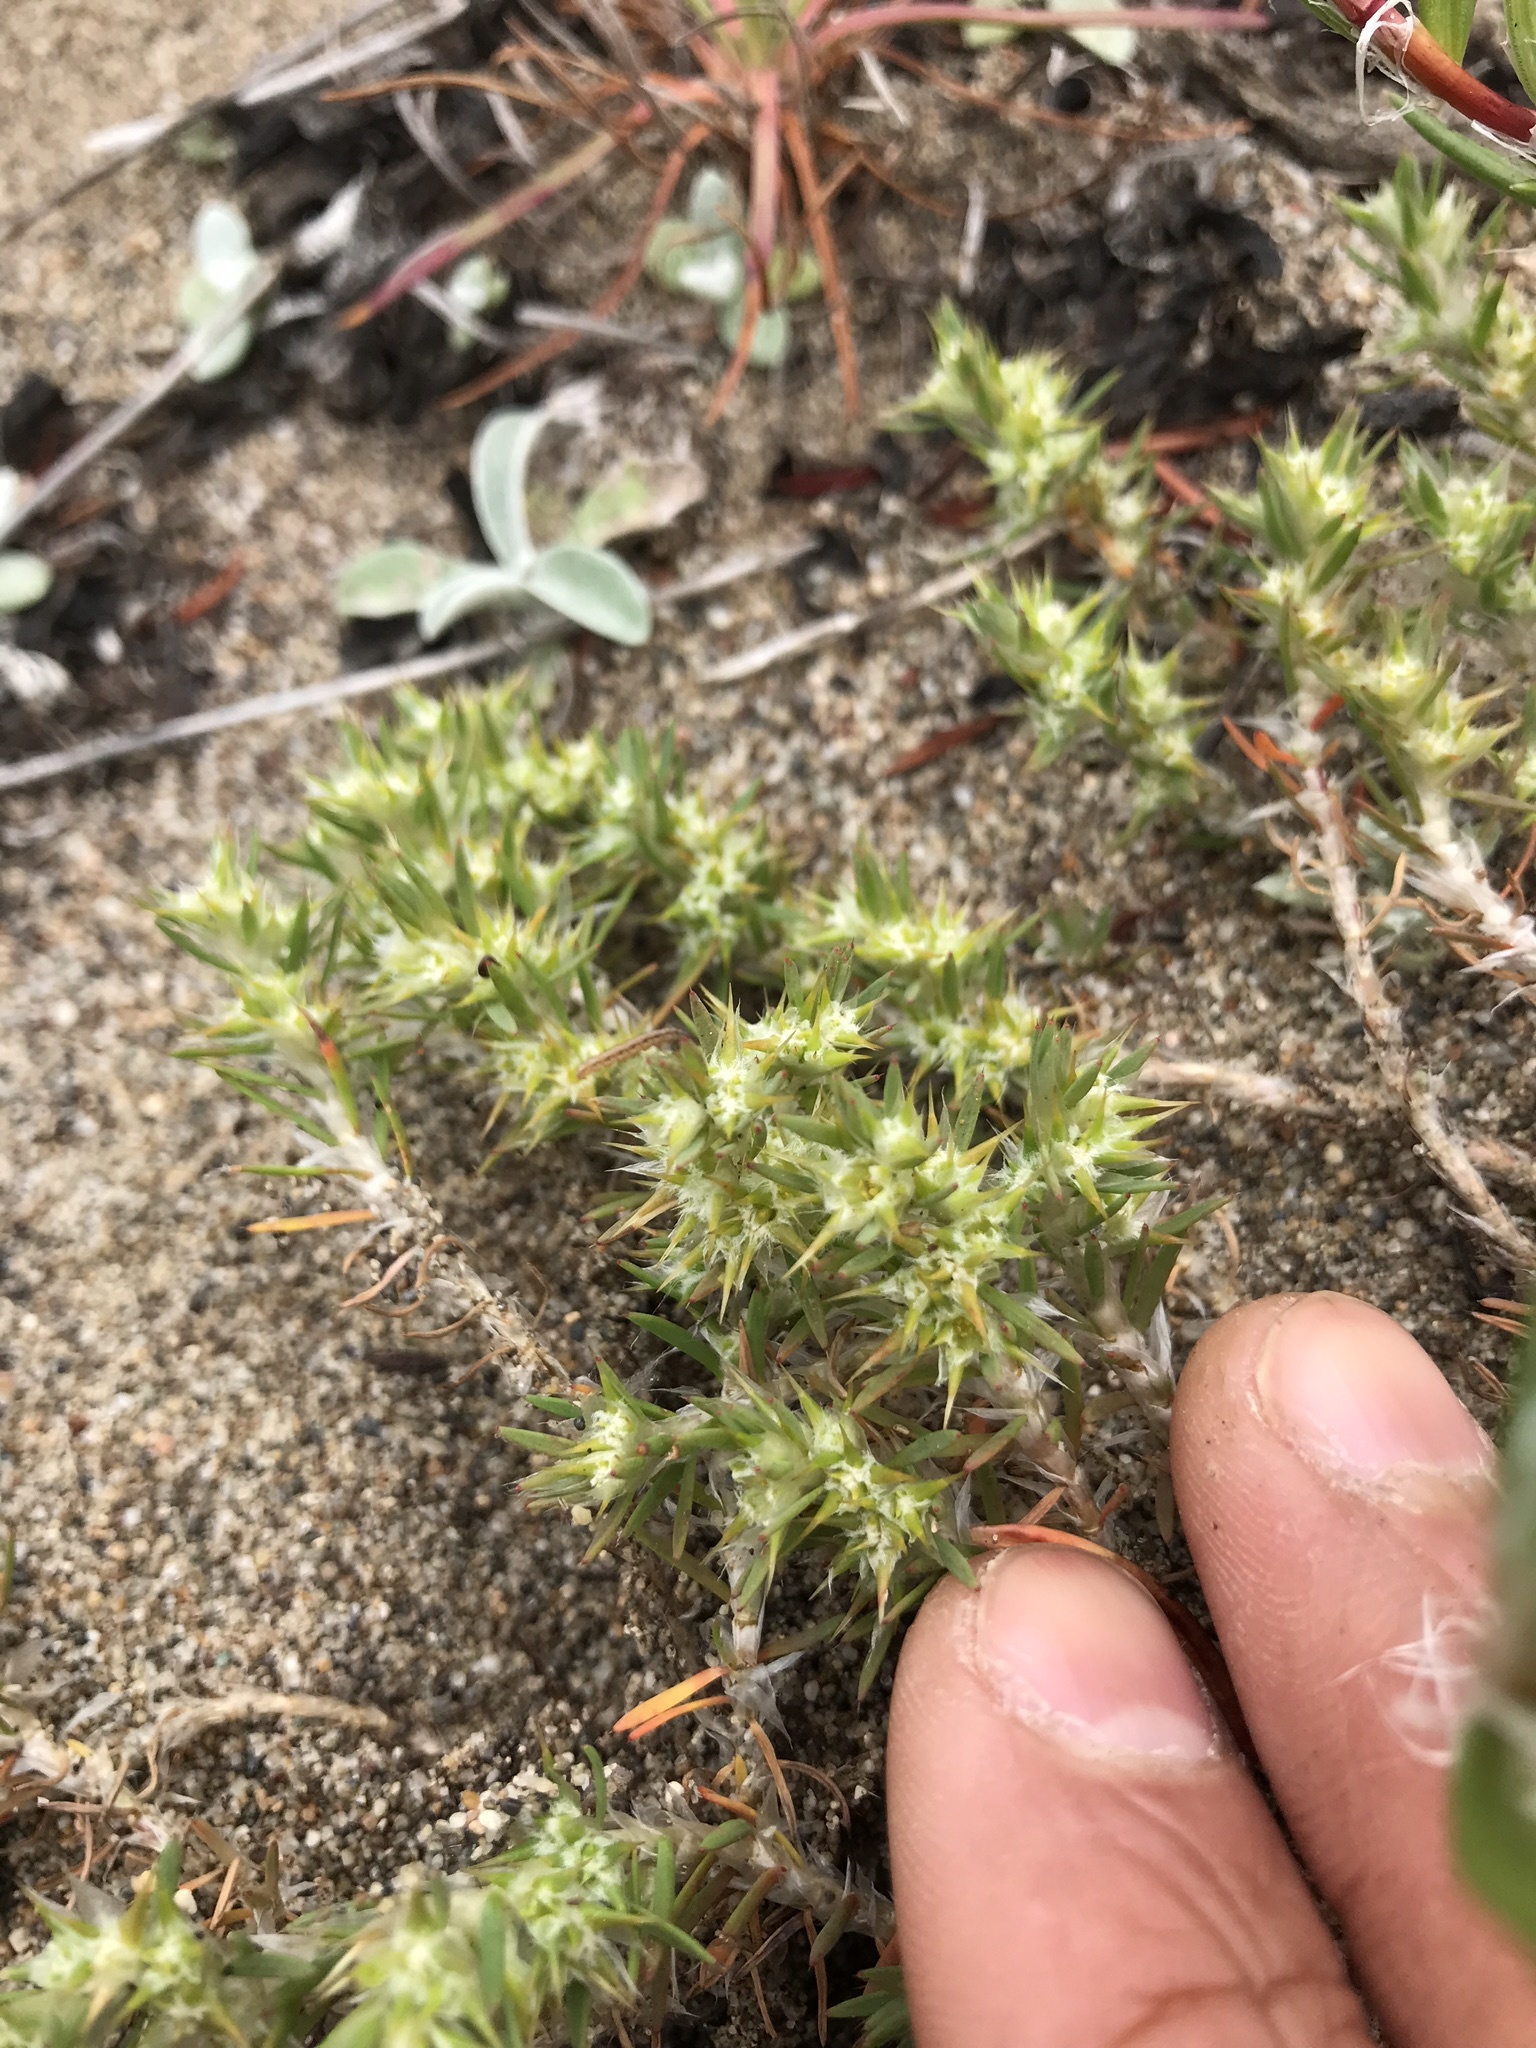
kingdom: Plantae
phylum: Tracheophyta
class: Magnoliopsida
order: Caryophyllales
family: Caryophyllaceae
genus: Cardionema
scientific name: Cardionema ramosissima
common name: Sandcarpet
